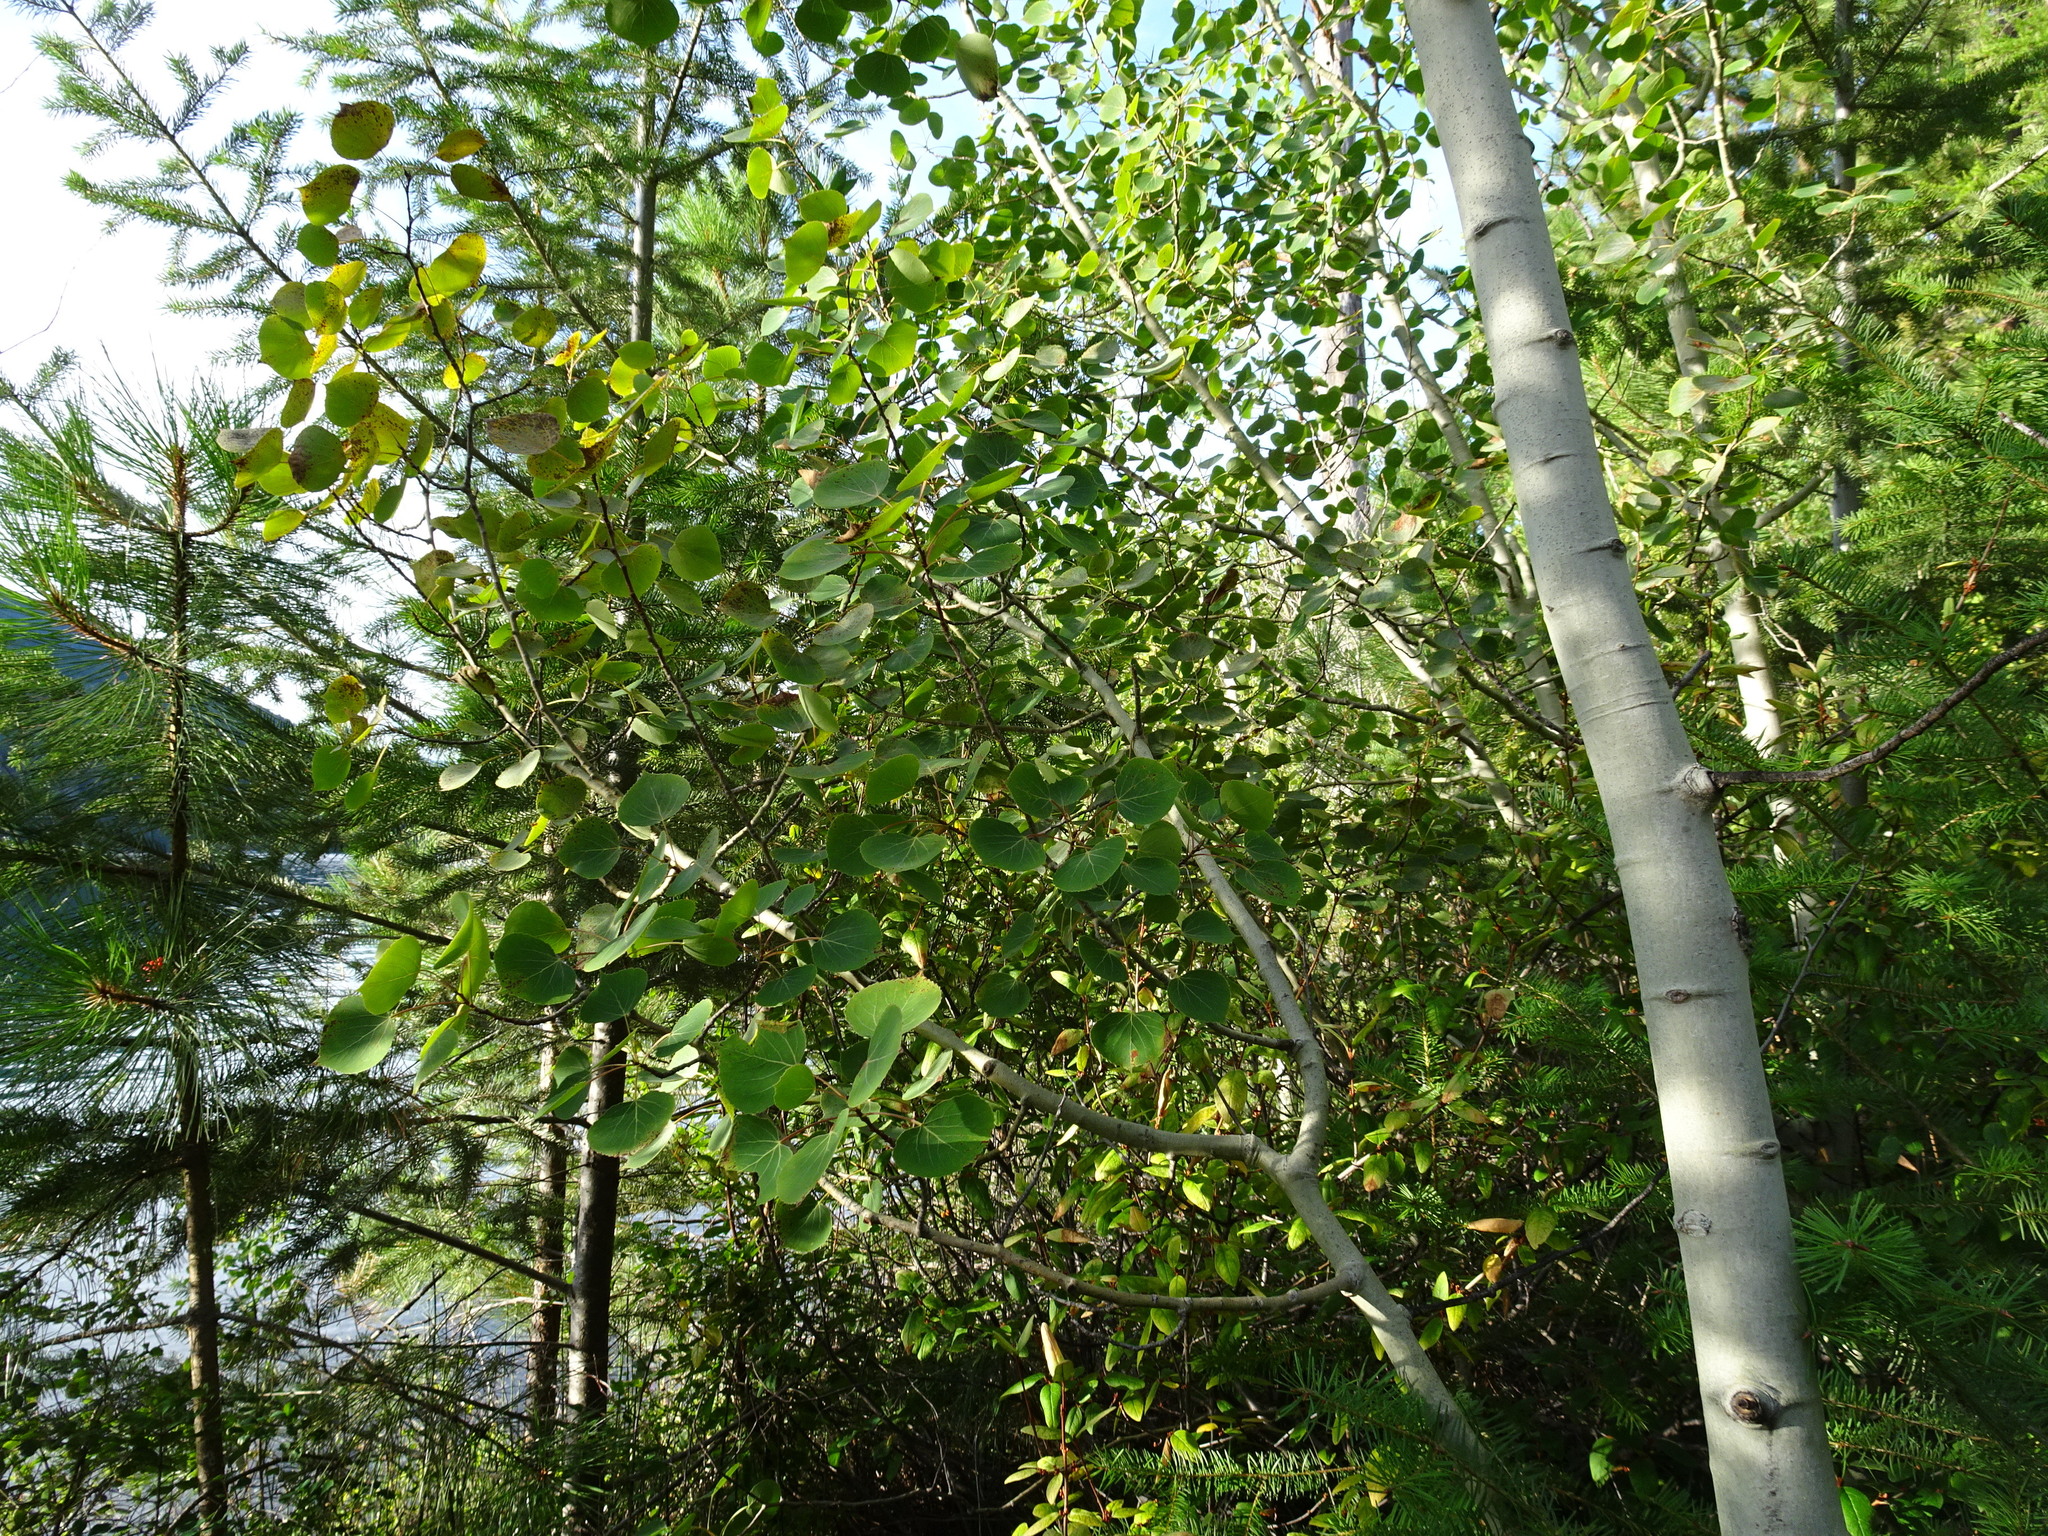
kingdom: Plantae
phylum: Tracheophyta
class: Magnoliopsida
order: Malpighiales
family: Salicaceae
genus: Populus
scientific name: Populus tremuloides
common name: Quaking aspen
